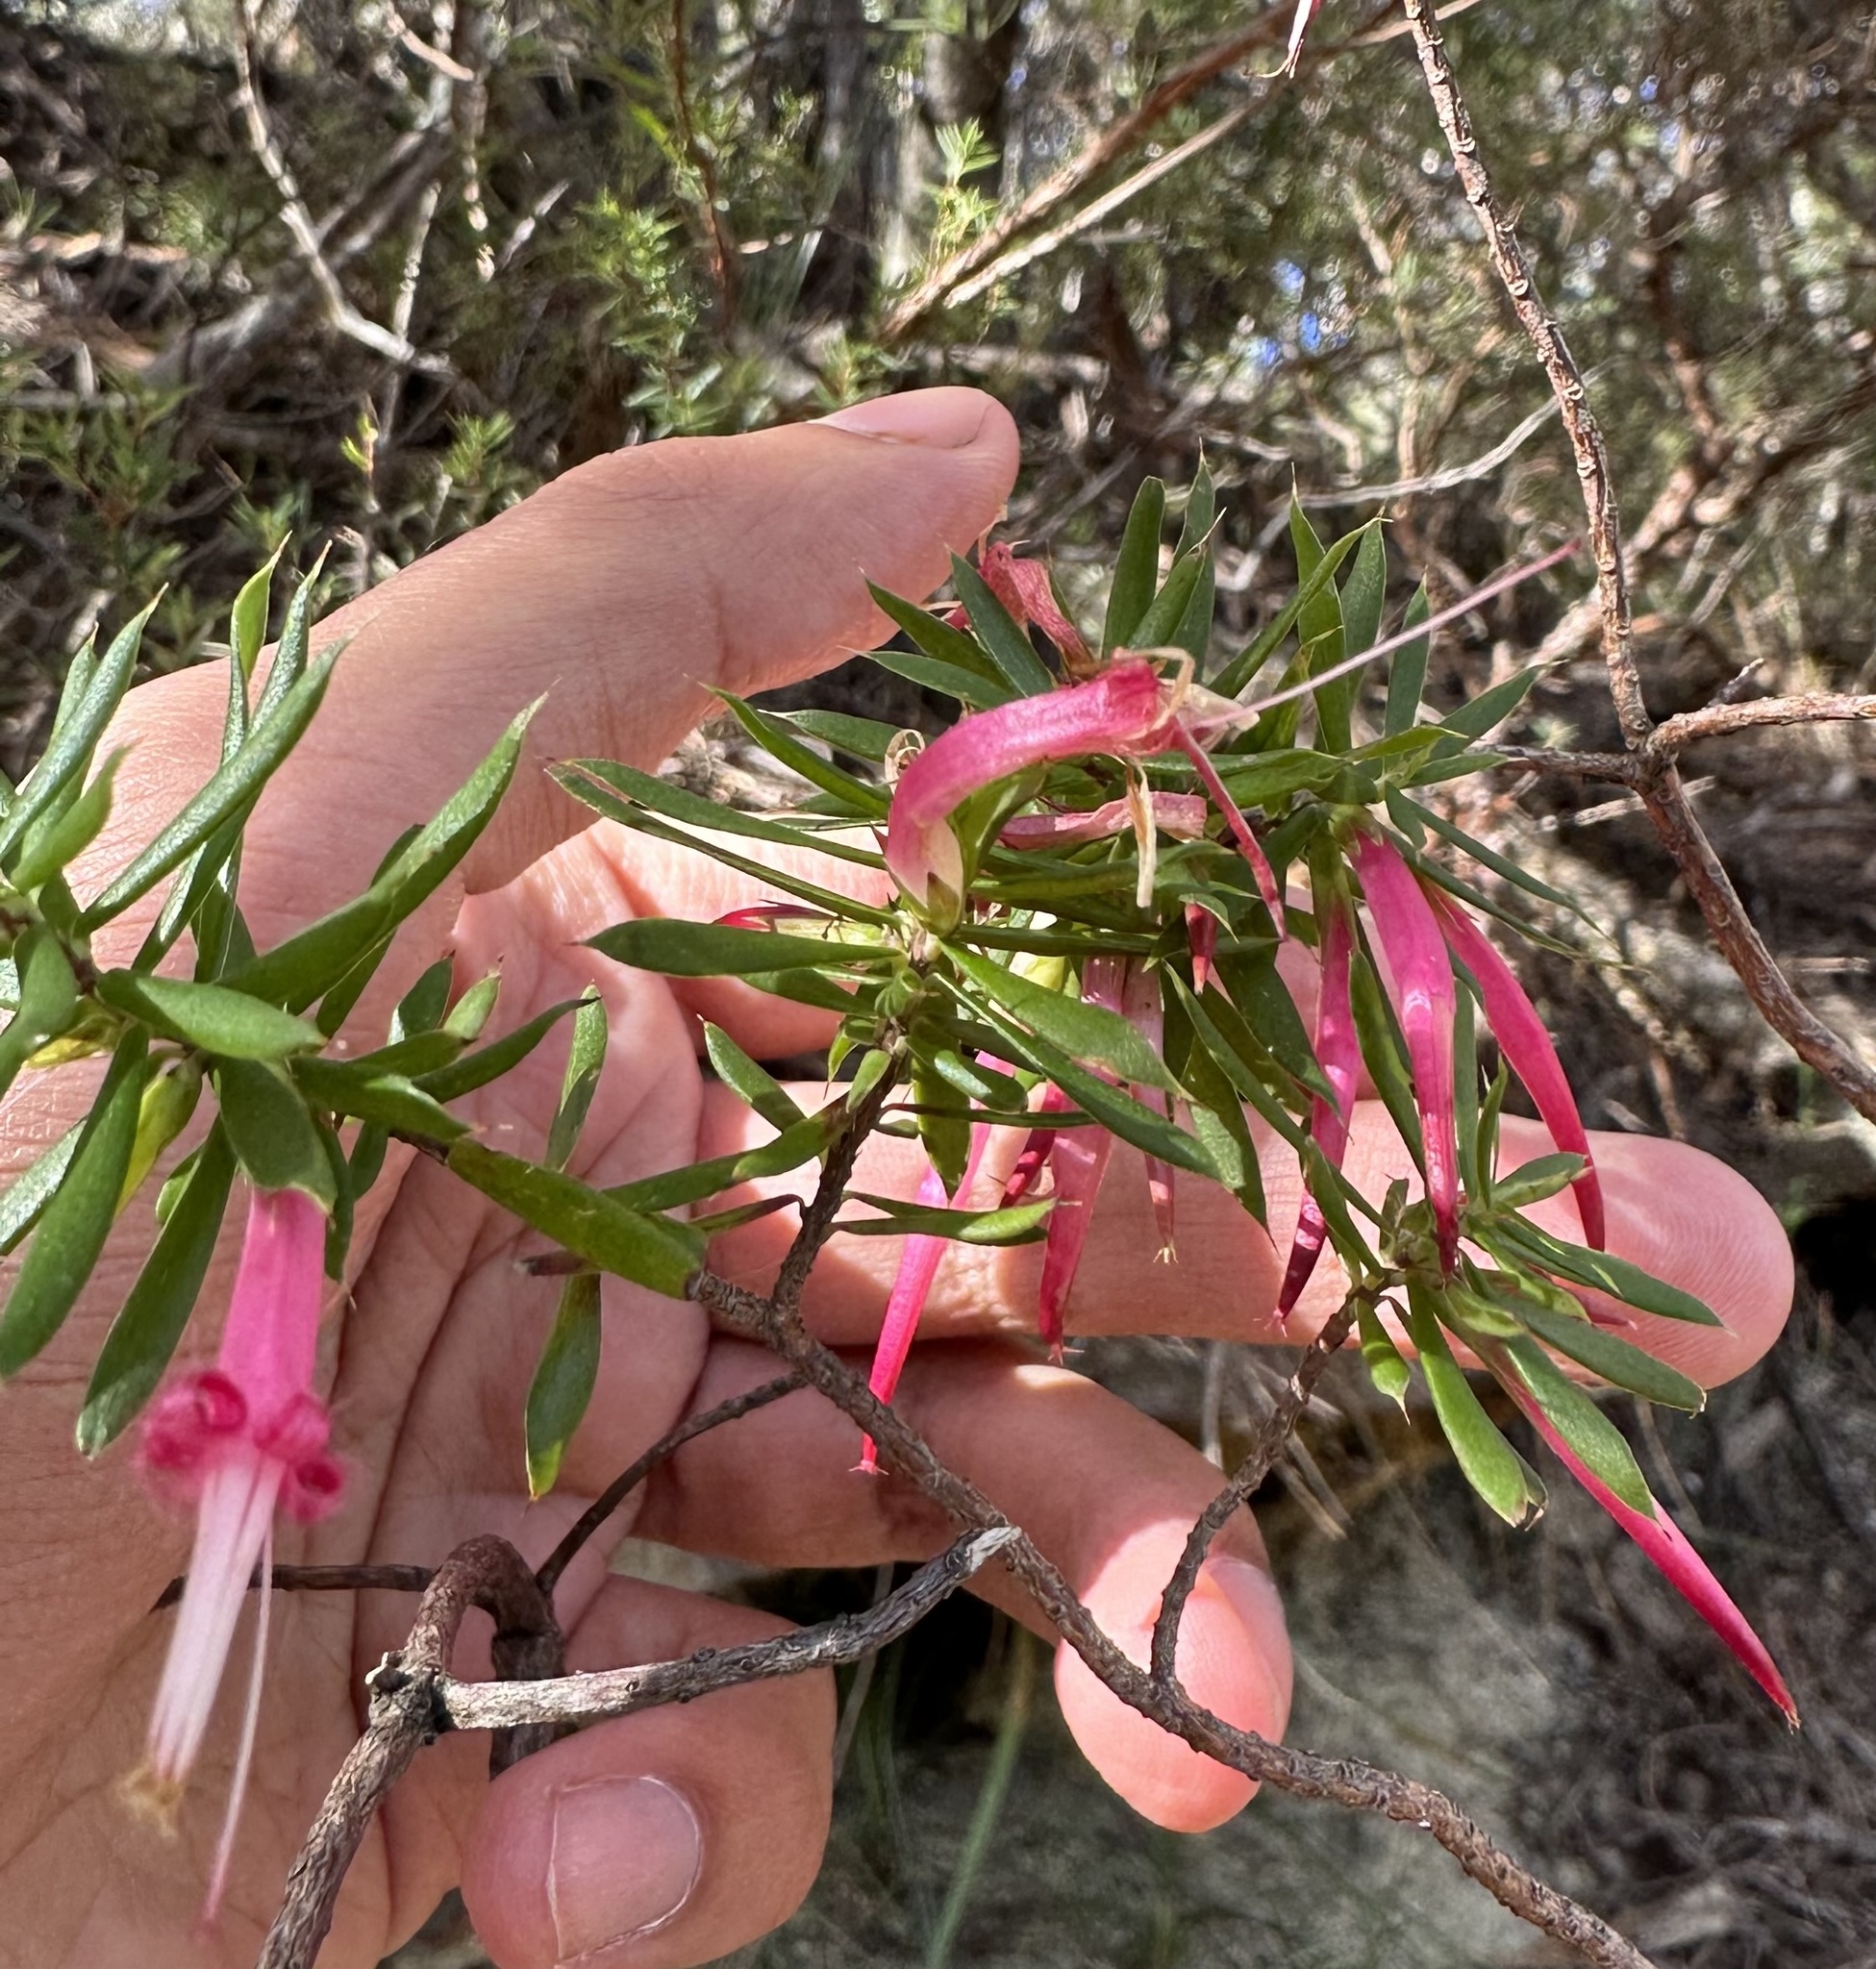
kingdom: Plantae
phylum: Tracheophyta
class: Magnoliopsida
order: Ericales
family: Ericaceae
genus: Styphelia
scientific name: Styphelia tubiflora
